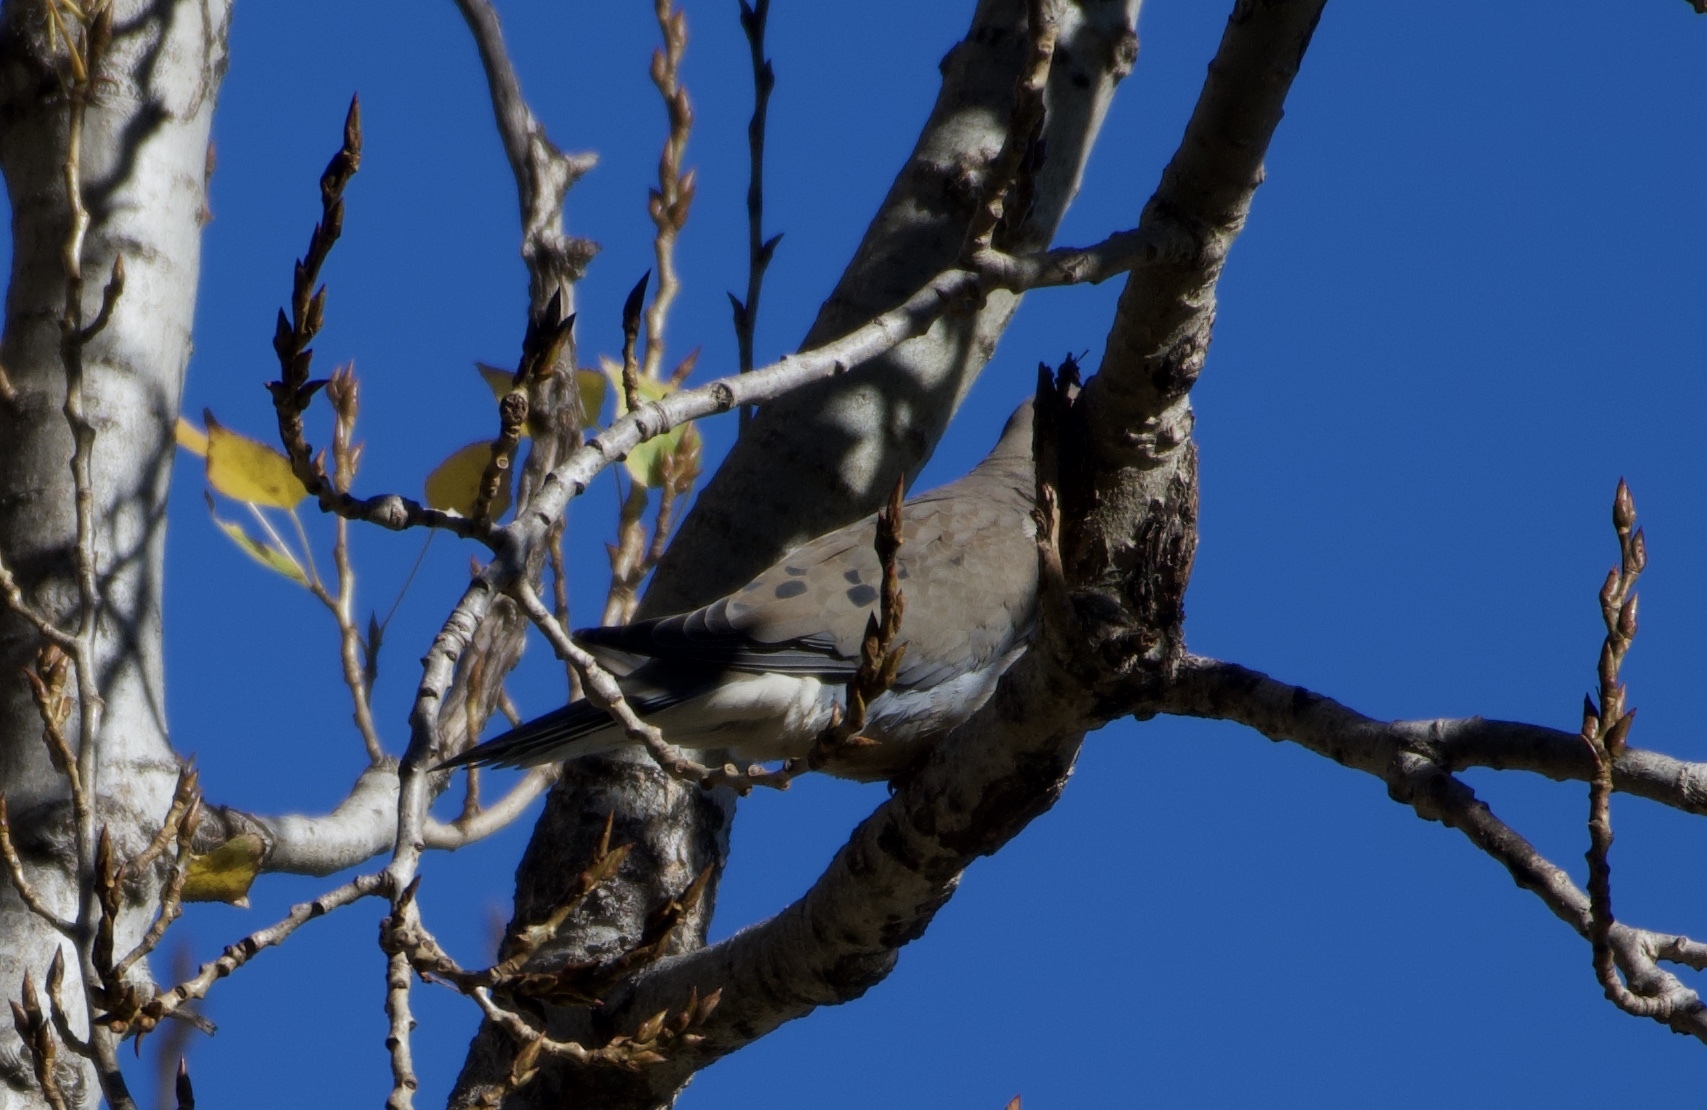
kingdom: Animalia
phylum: Chordata
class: Aves
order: Columbiformes
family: Columbidae
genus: Zenaida
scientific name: Zenaida macroura
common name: Mourning dove
